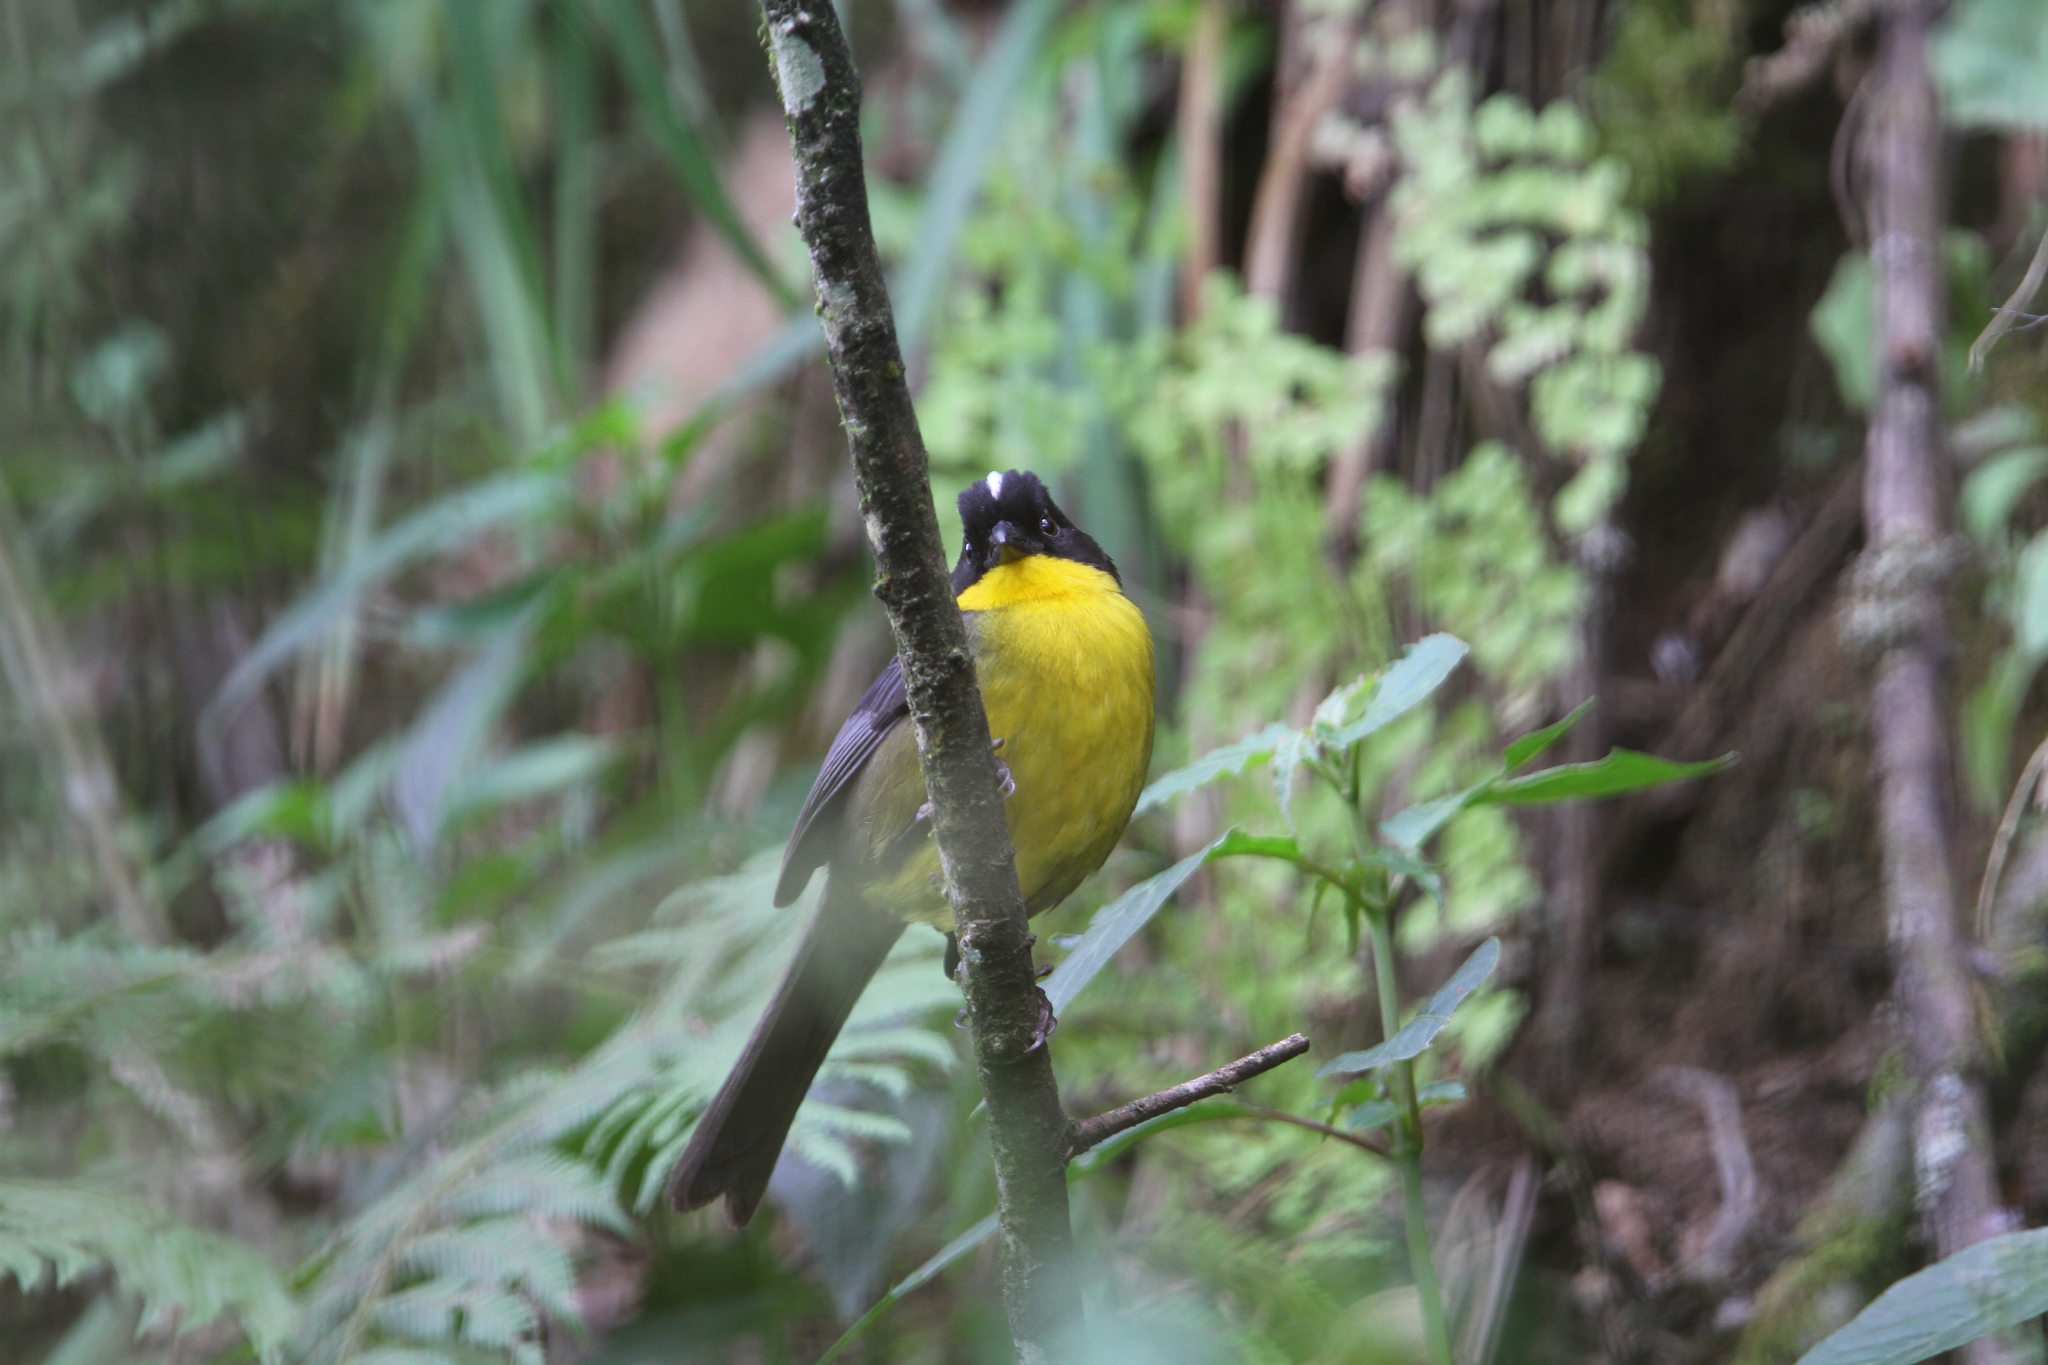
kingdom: Animalia
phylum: Chordata
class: Aves
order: Passeriformes
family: Passerellidae
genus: Atlapetes
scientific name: Atlapetes albinucha
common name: White-naped brush-finch
